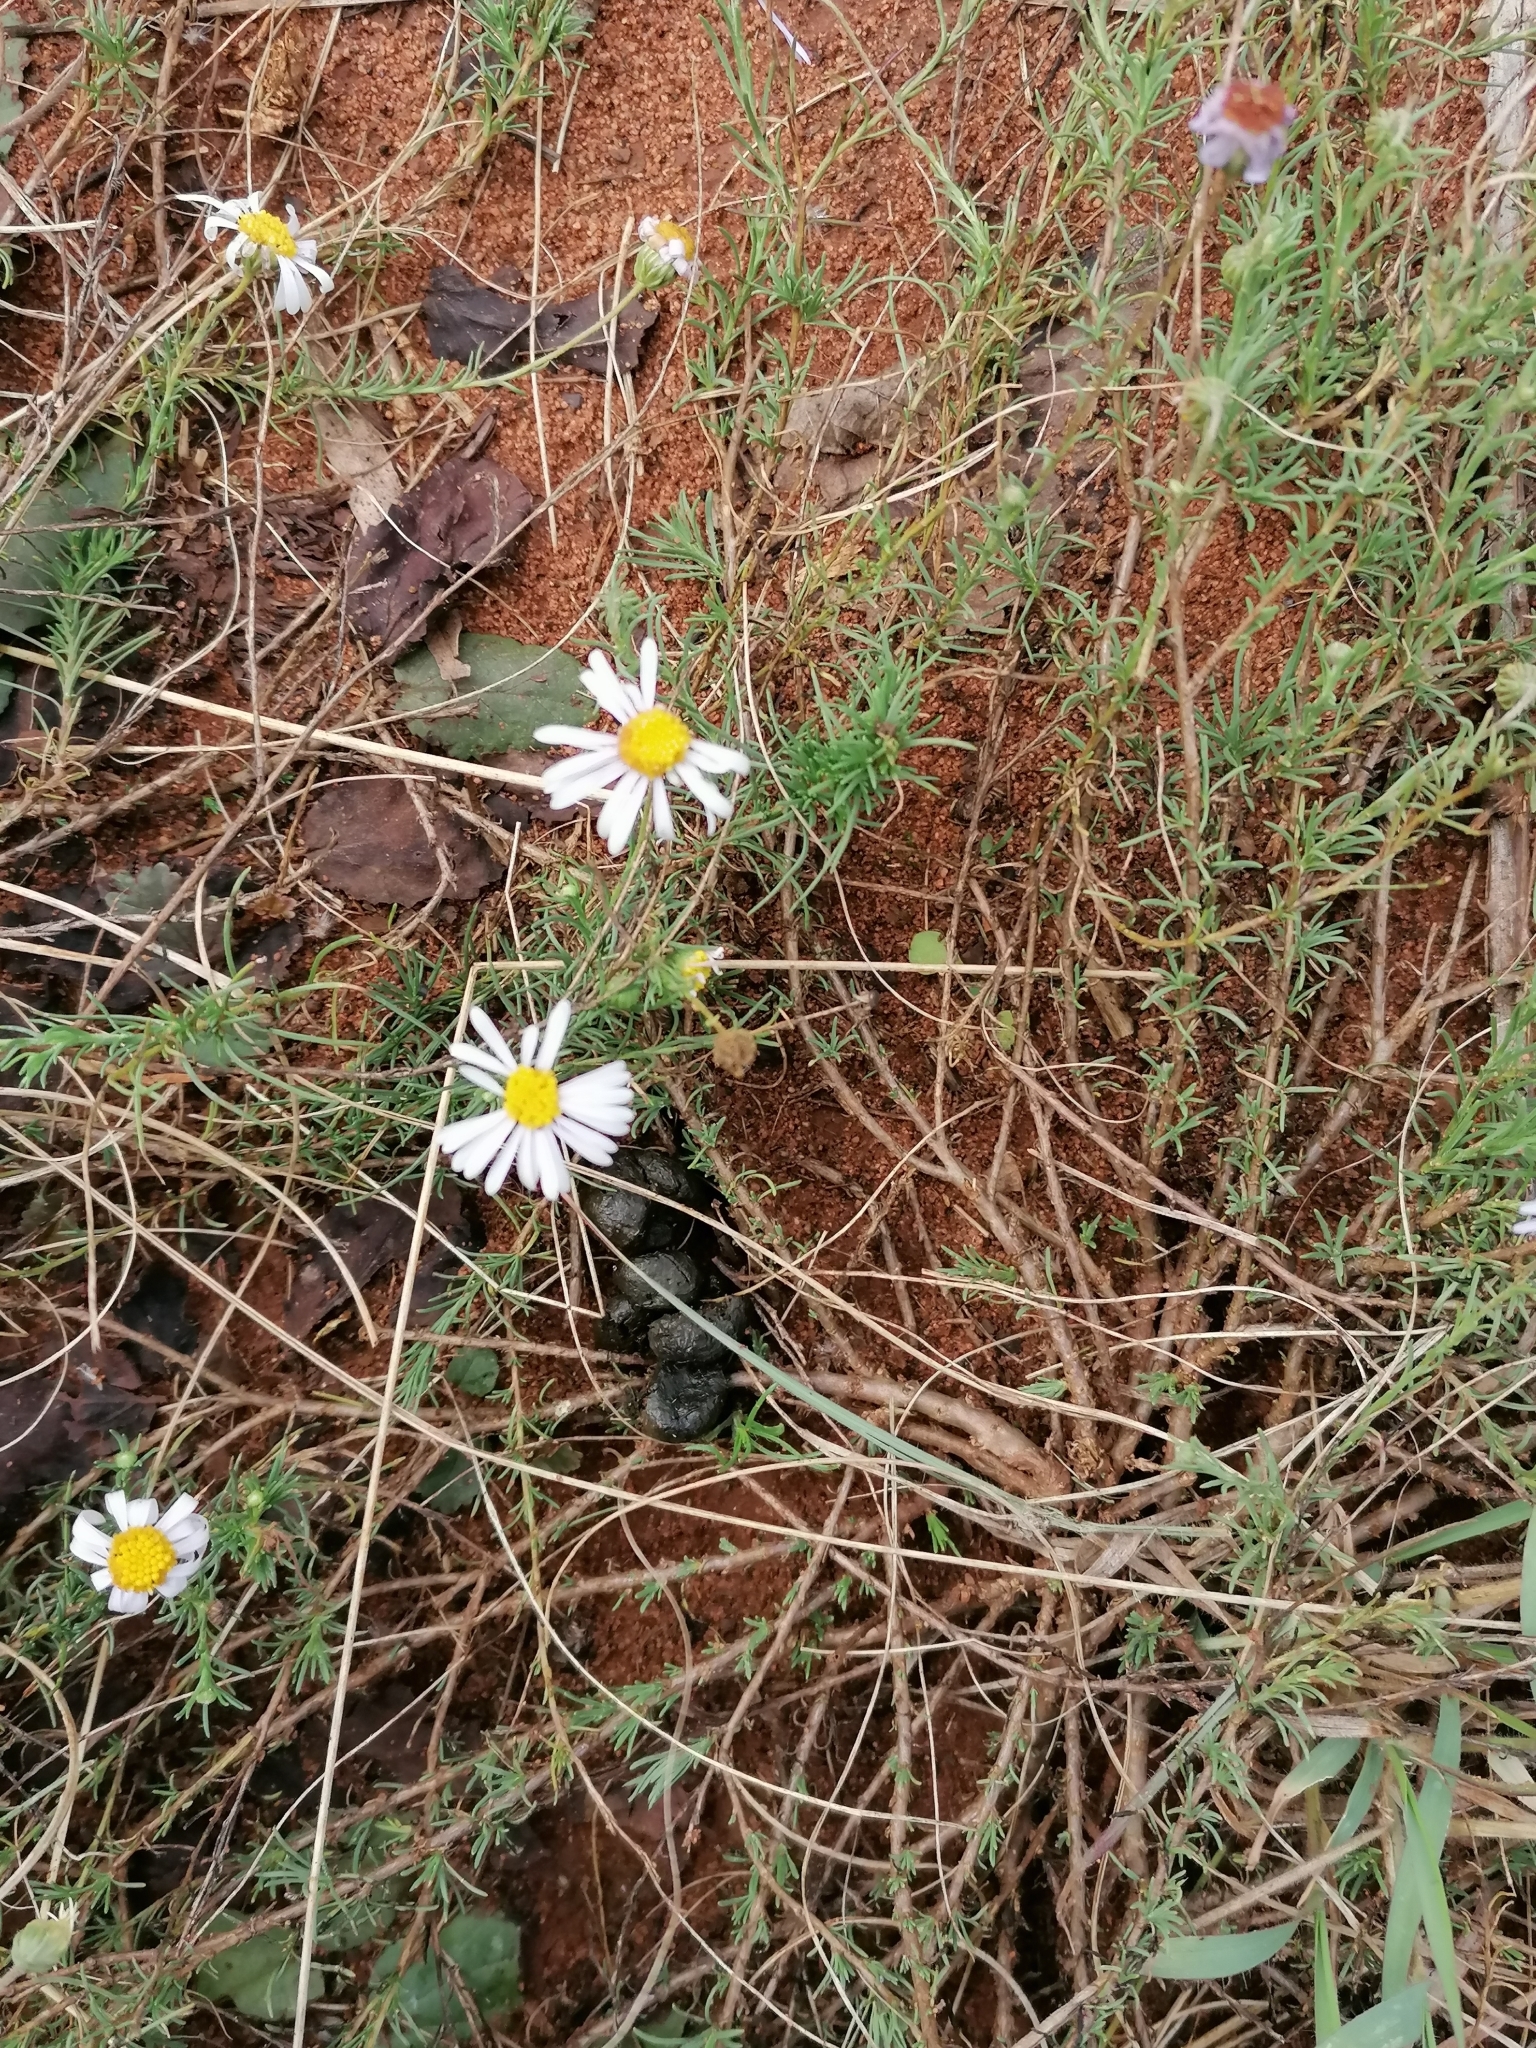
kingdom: Plantae
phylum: Tracheophyta
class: Magnoliopsida
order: Asterales
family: Asteraceae
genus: Felicia
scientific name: Felicia muricata
